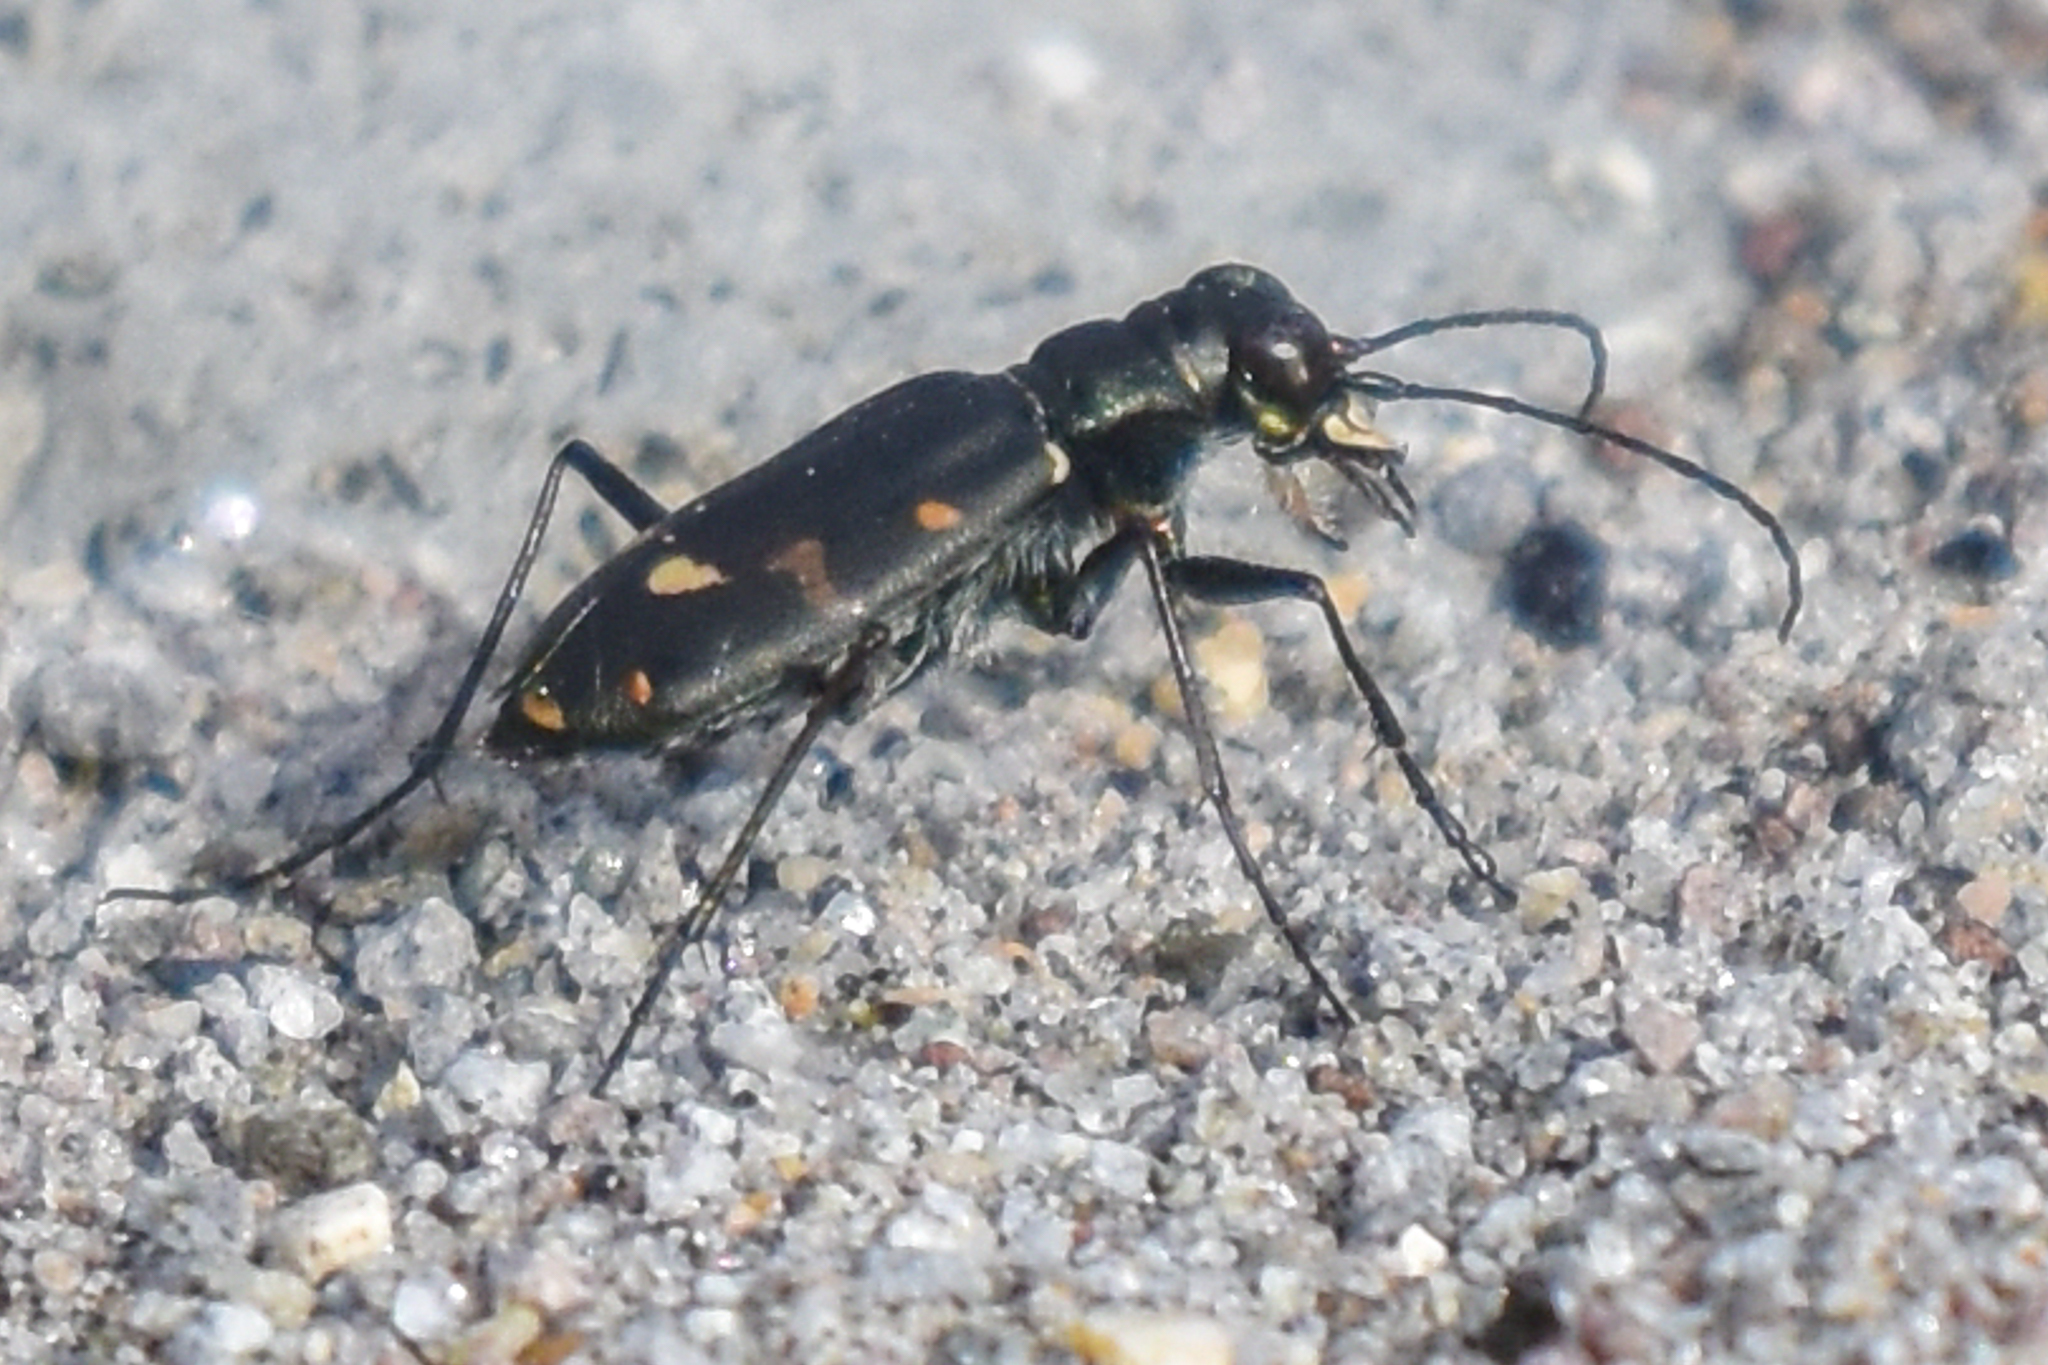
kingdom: Animalia
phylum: Arthropoda
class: Insecta
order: Coleoptera
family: Carabidae
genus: Cicindela
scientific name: Cicindela oregona
